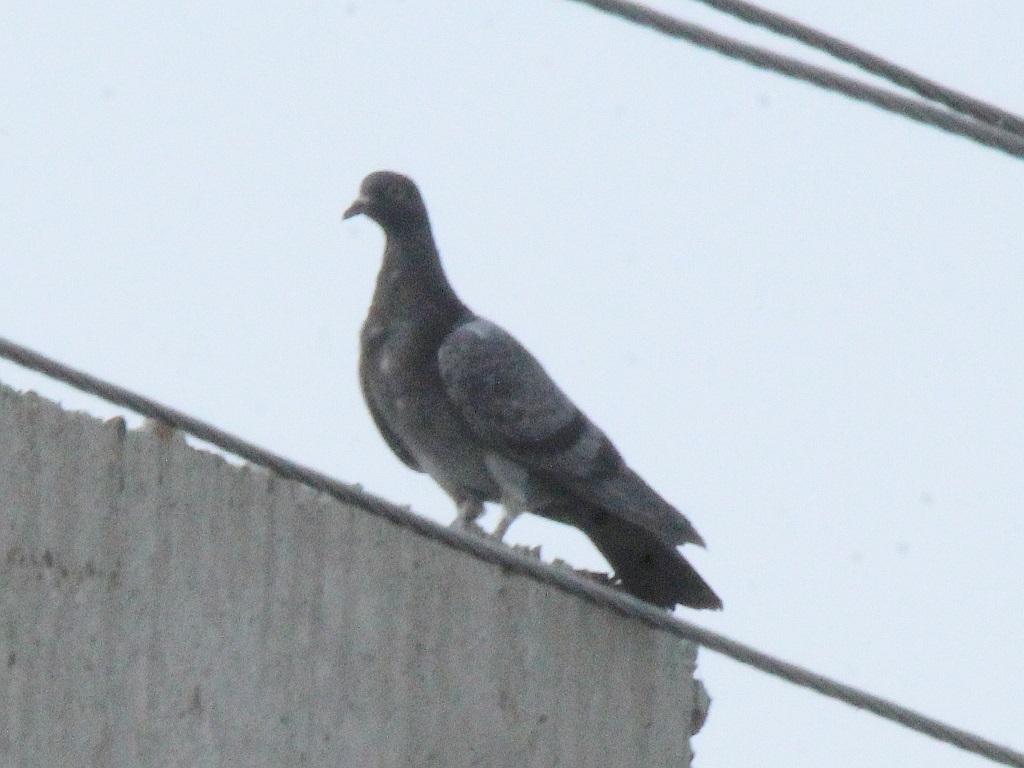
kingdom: Animalia
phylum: Chordata
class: Aves
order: Columbiformes
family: Columbidae
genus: Columba
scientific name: Columba livia
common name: Rock pigeon
